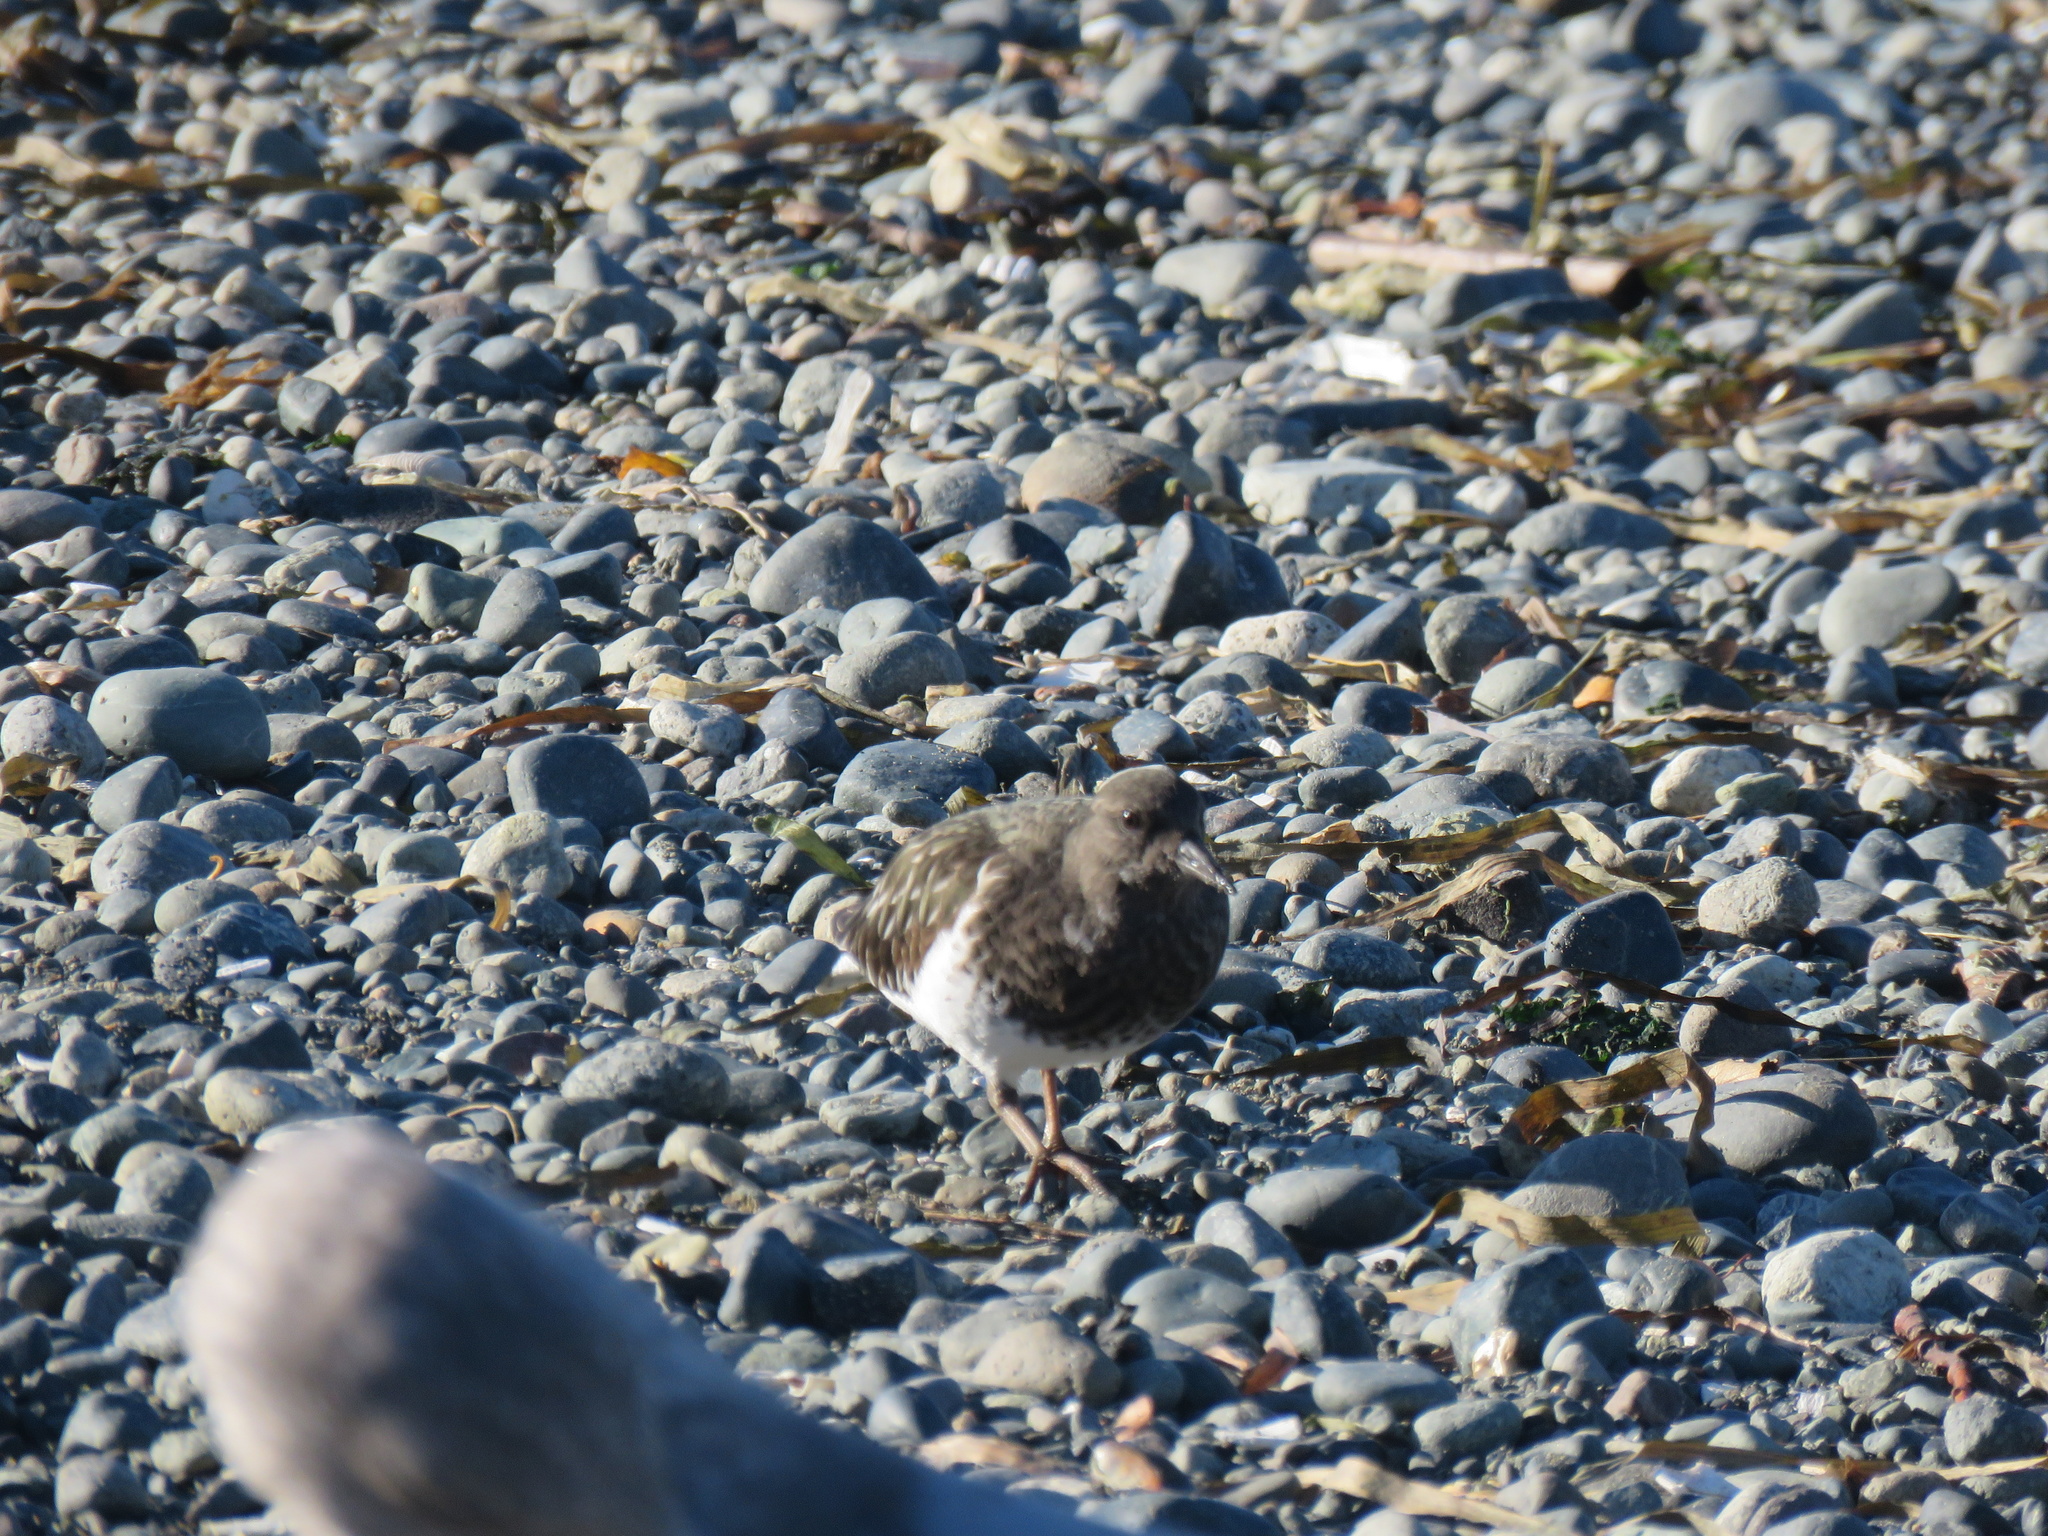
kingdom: Animalia
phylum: Chordata
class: Aves
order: Charadriiformes
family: Scolopacidae
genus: Arenaria
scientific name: Arenaria melanocephala
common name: Black turnstone
